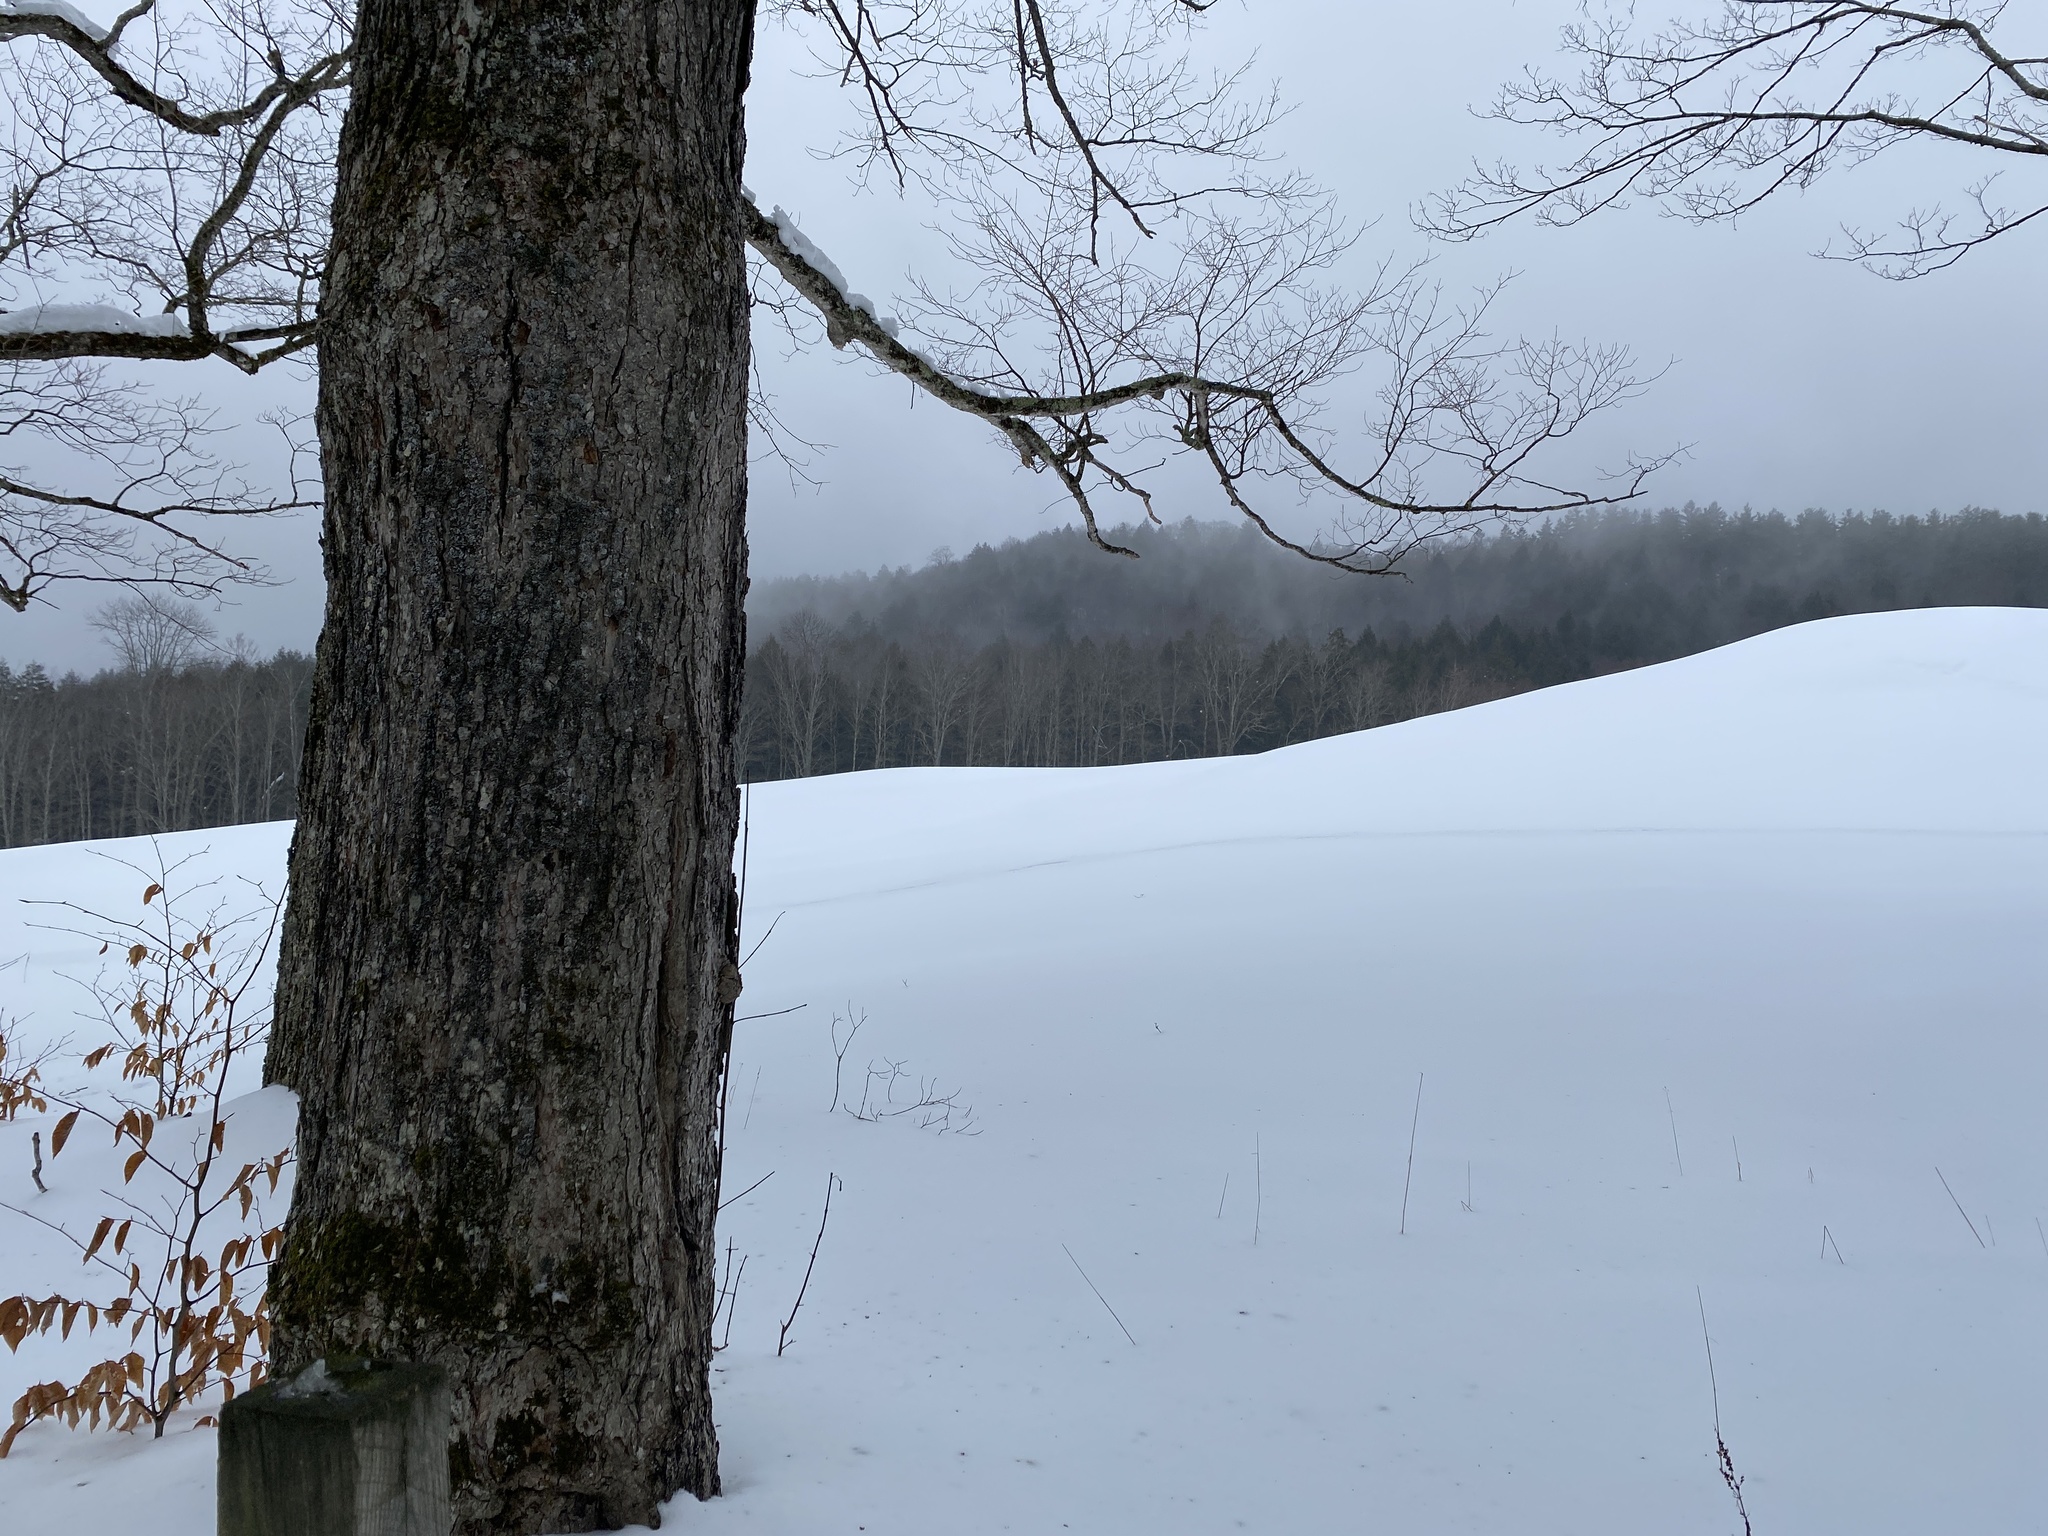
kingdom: Plantae
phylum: Tracheophyta
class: Magnoliopsida
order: Sapindales
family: Sapindaceae
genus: Acer
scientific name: Acer saccharum
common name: Sugar maple
